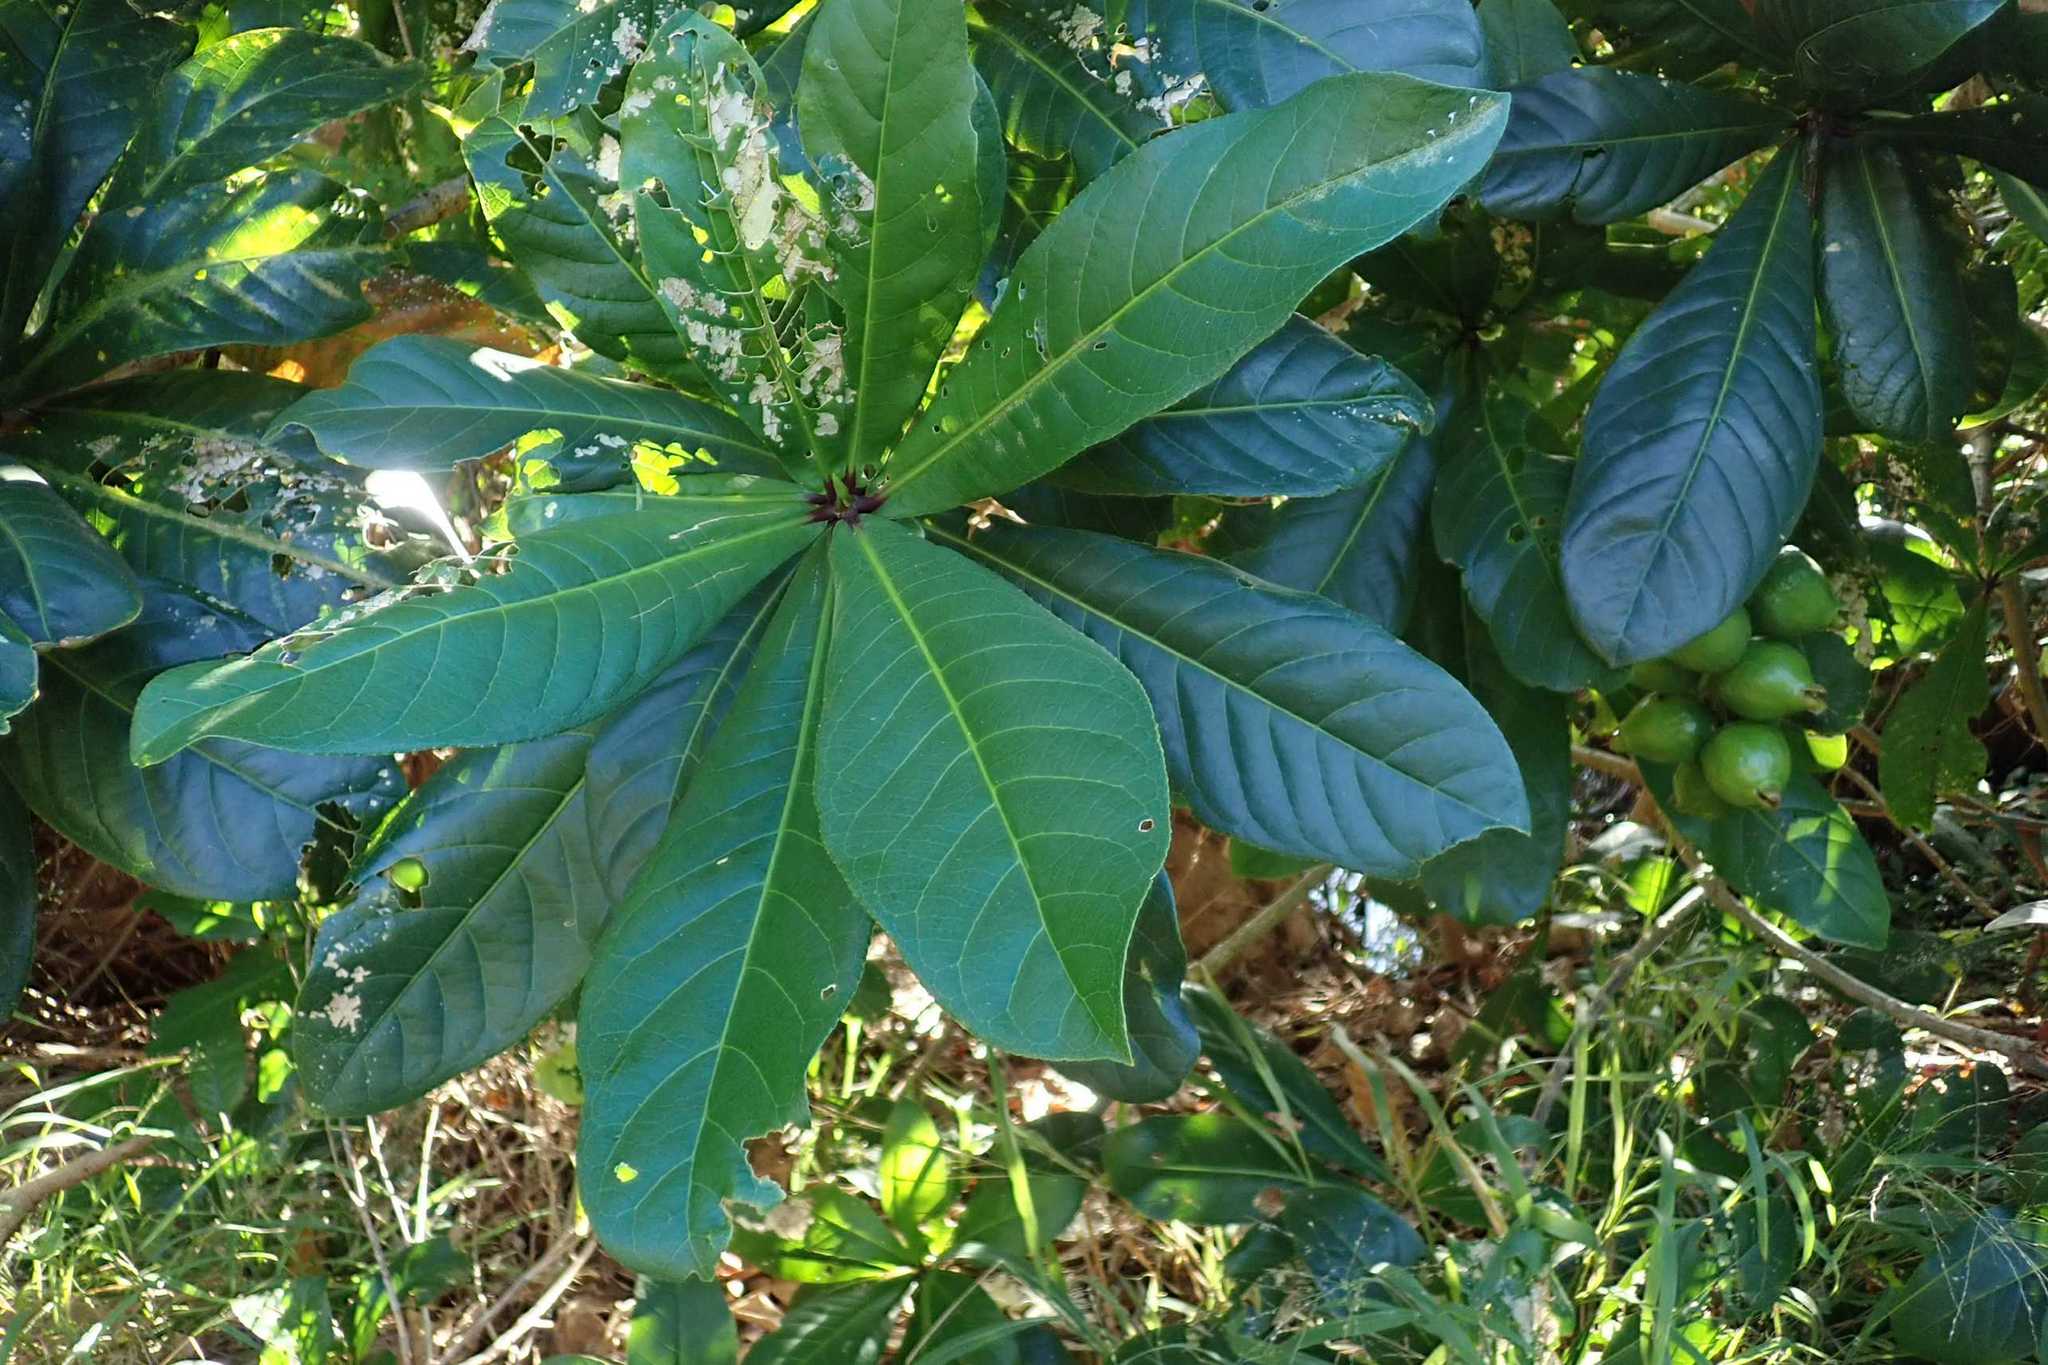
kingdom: Plantae
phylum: Tracheophyta
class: Magnoliopsida
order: Ericales
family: Lecythidaceae
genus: Barringtonia
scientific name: Barringtonia racemosa
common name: Brackwater mangrove
